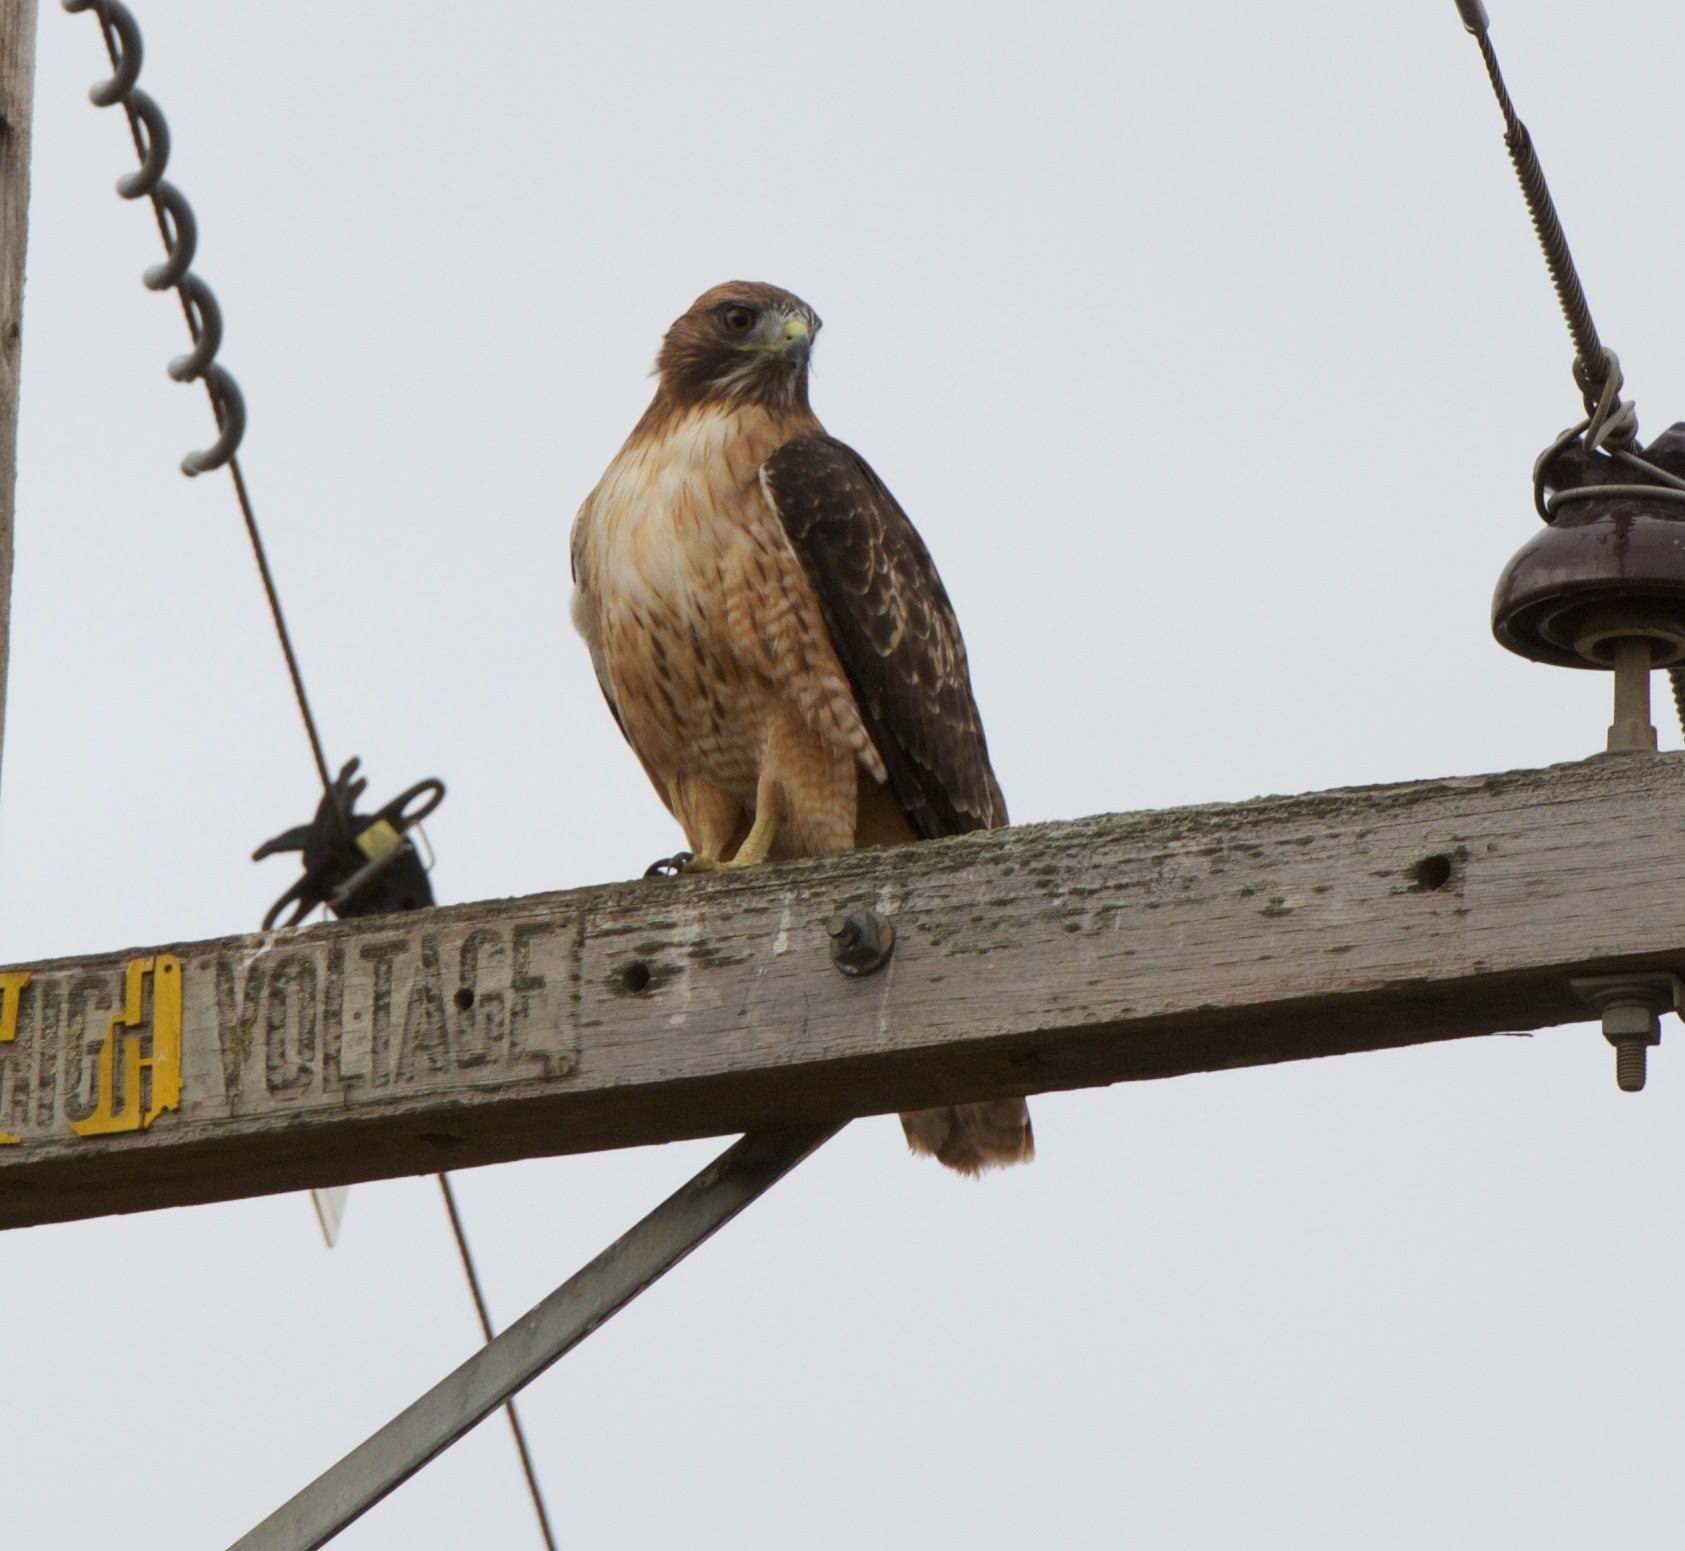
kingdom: Animalia
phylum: Chordata
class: Aves
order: Accipitriformes
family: Accipitridae
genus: Buteo
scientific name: Buteo jamaicensis
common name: Red-tailed hawk
